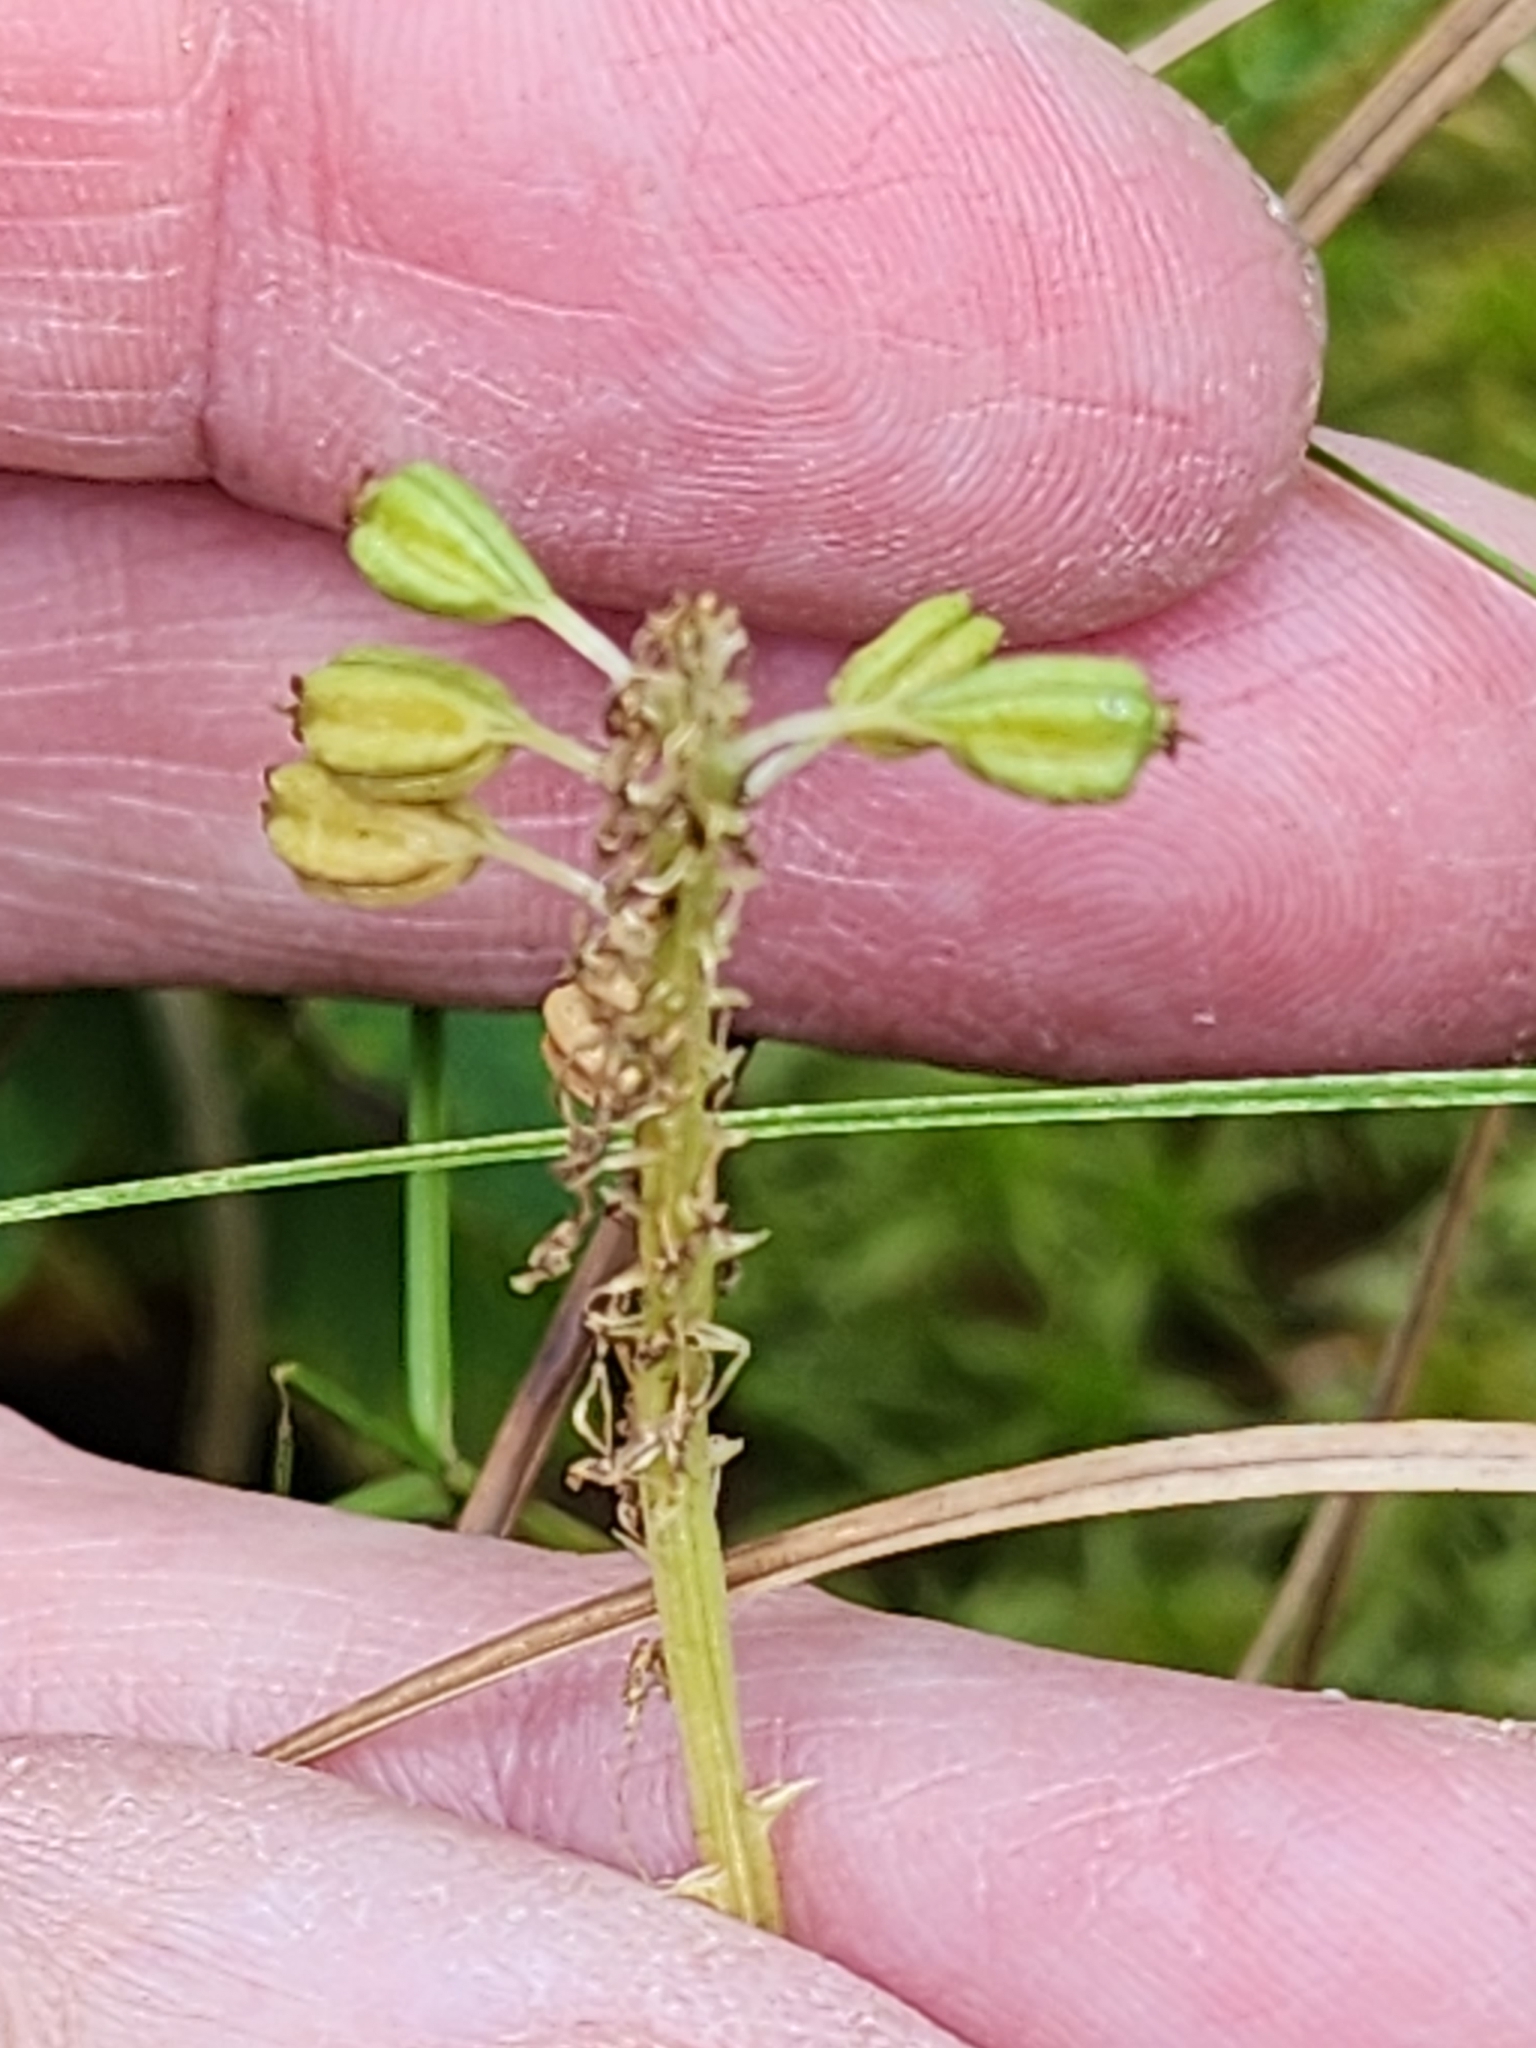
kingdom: Plantae
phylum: Tracheophyta
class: Liliopsida
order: Asparagales
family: Orchidaceae
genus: Malaxis
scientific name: Malaxis unifolia
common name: Green adder's-mouth
